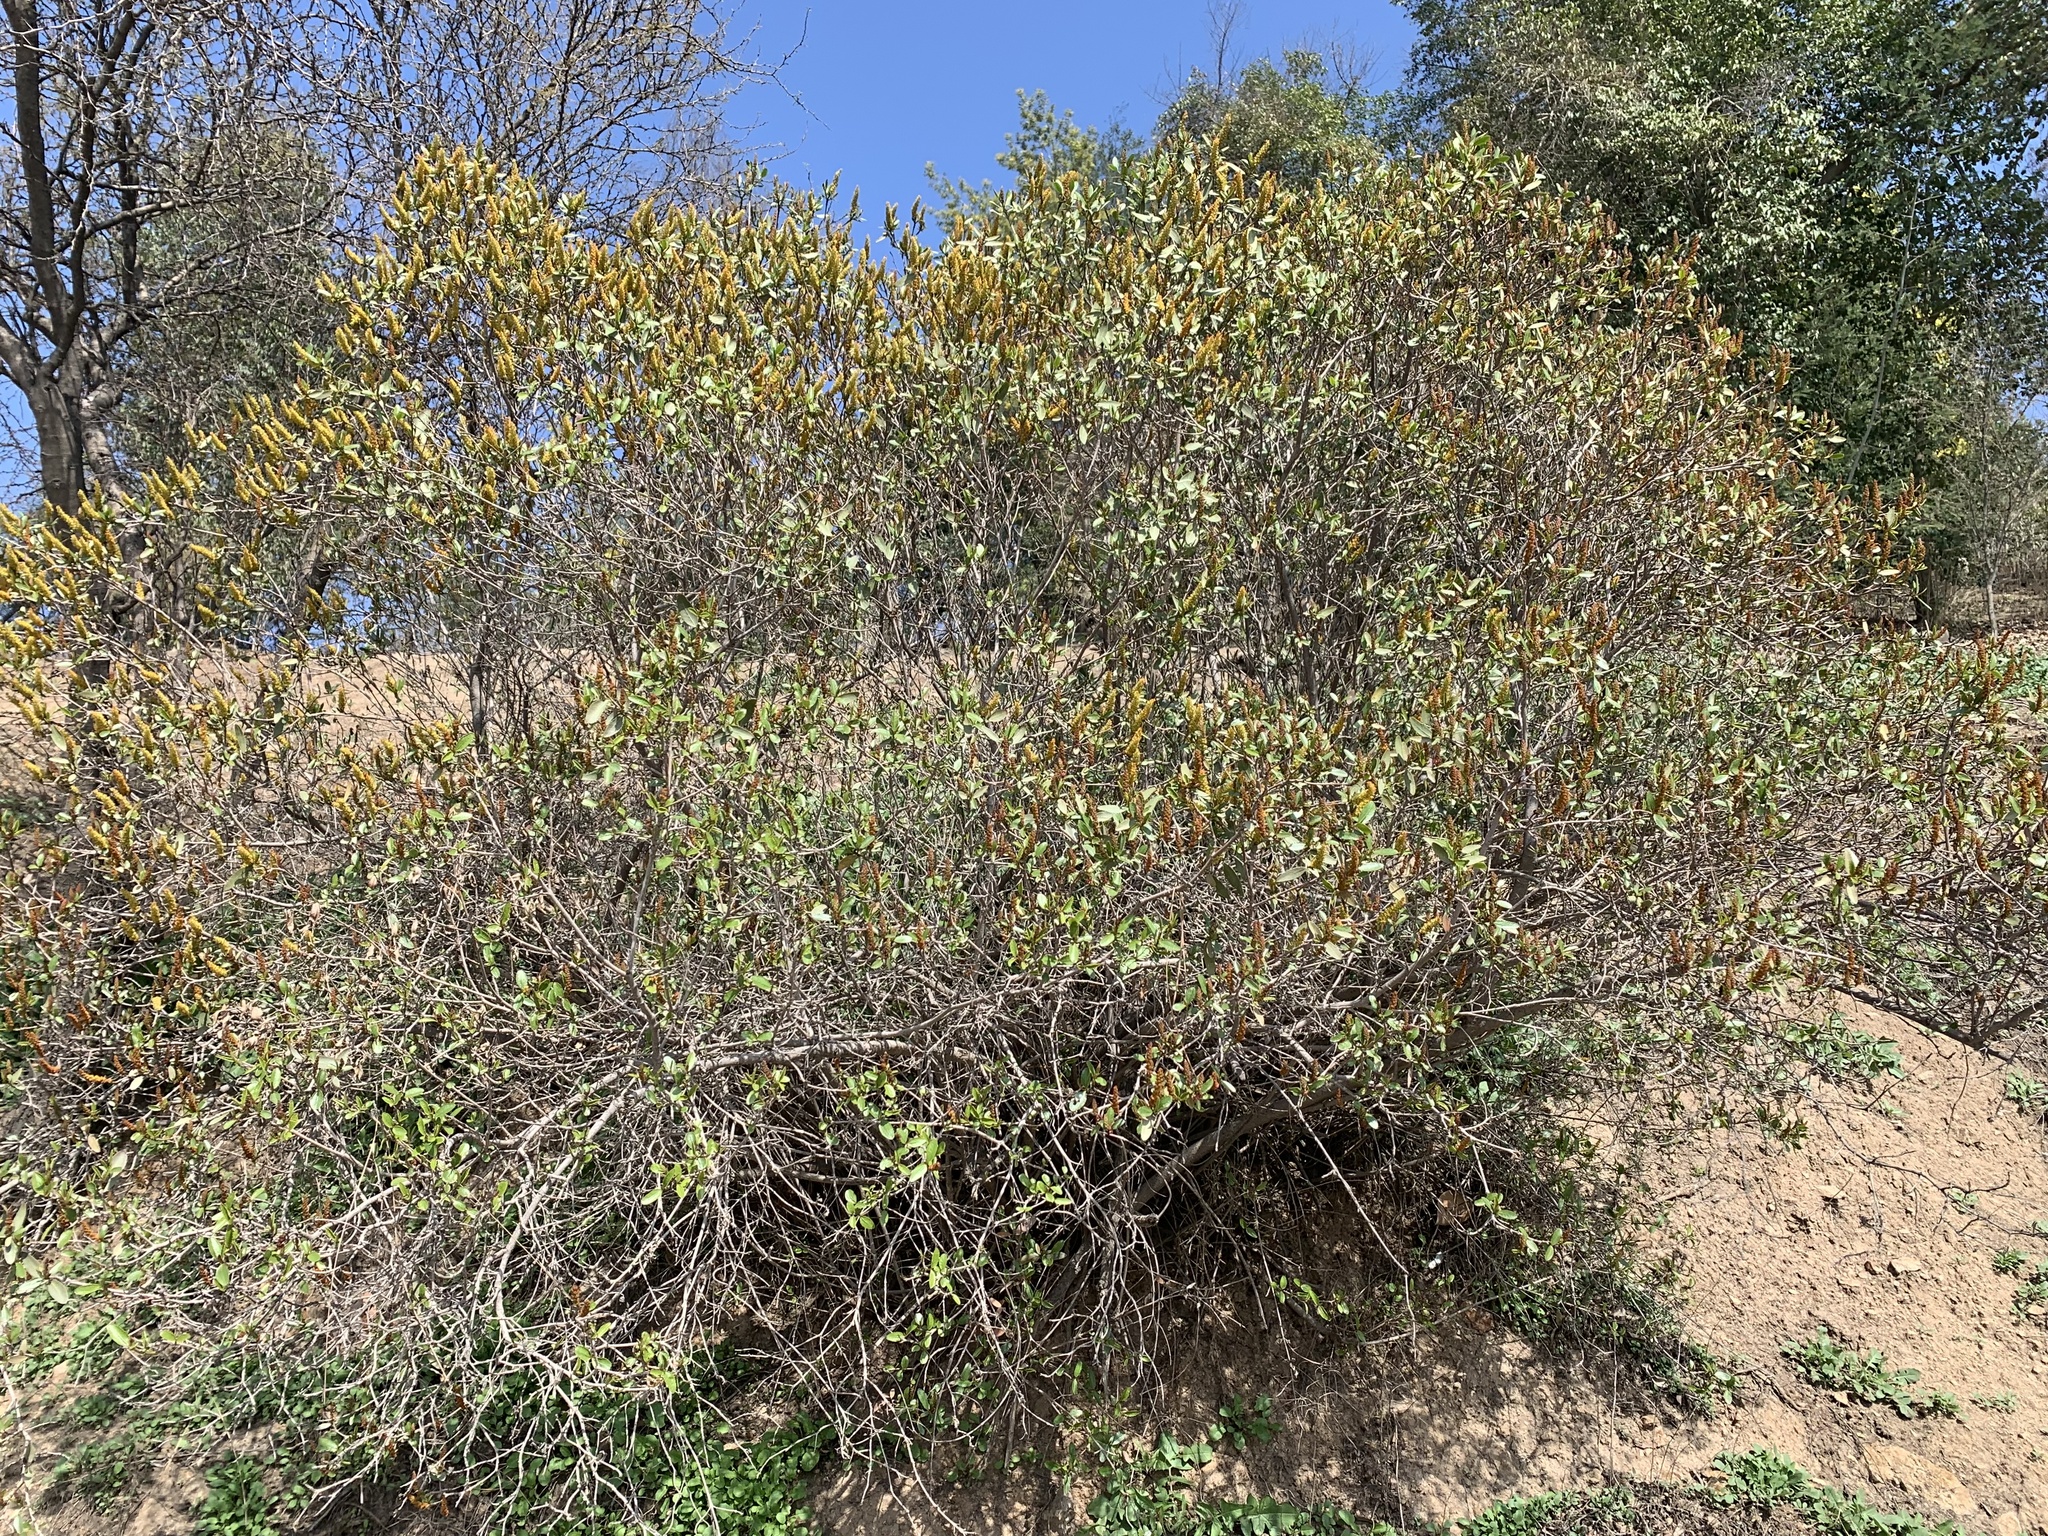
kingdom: Plantae
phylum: Tracheophyta
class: Magnoliopsida
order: Malpighiales
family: Euphorbiaceae
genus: Colliguaja
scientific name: Colliguaja odorifera
